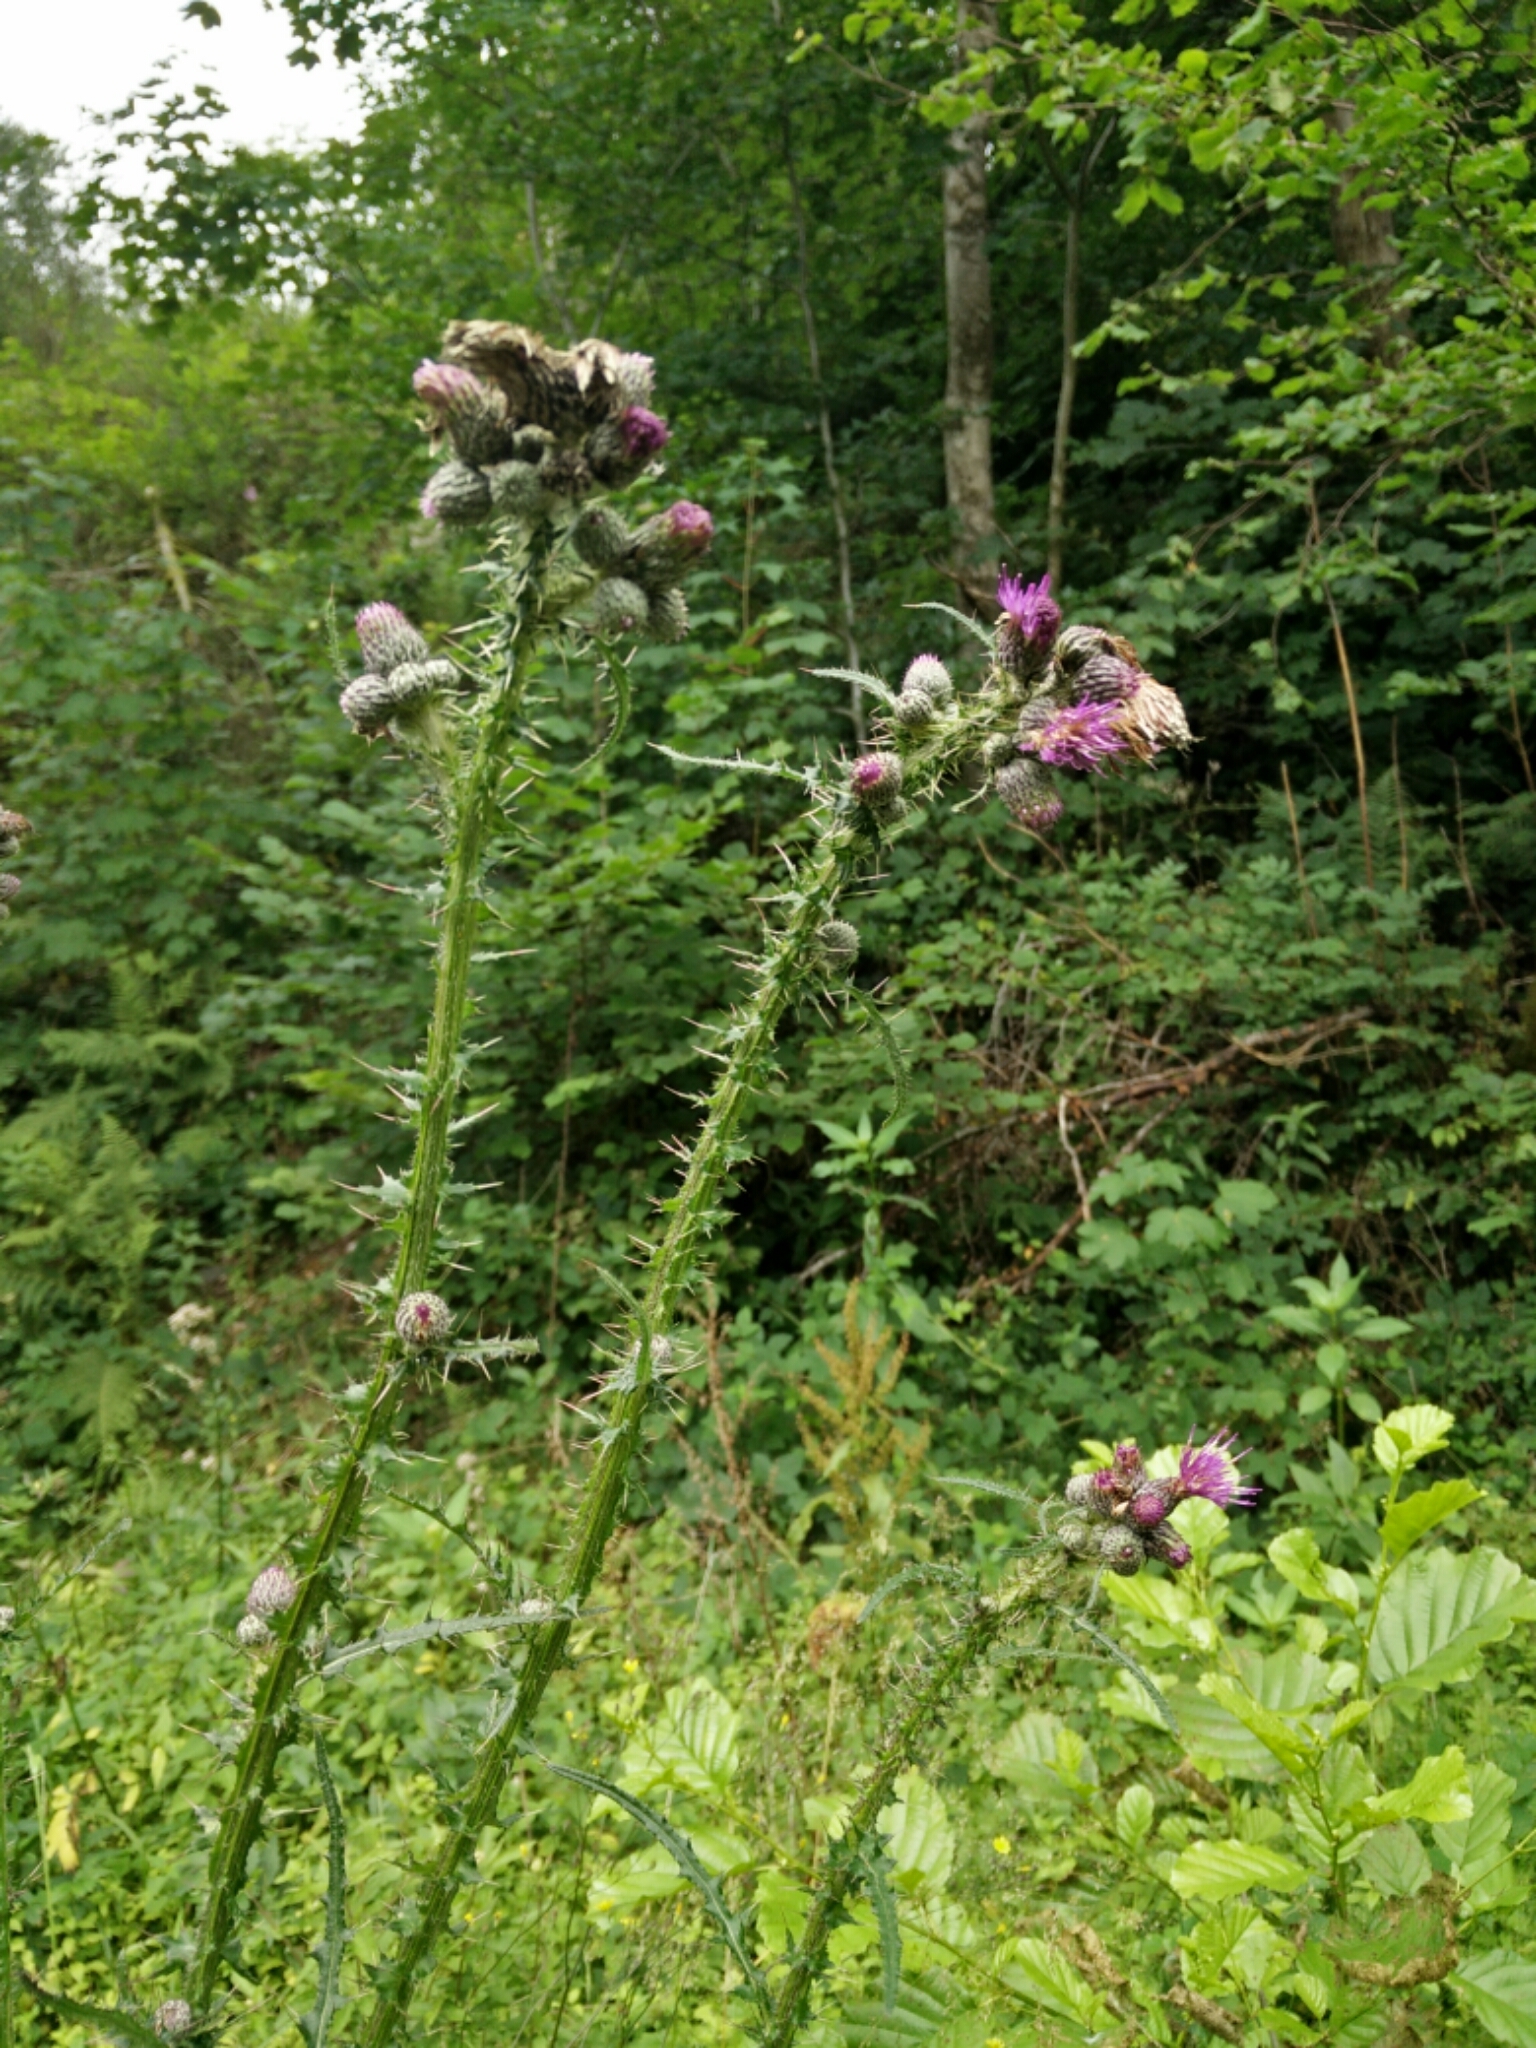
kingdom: Plantae
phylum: Tracheophyta
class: Magnoliopsida
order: Asterales
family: Asteraceae
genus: Cirsium
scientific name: Cirsium palustre
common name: Marsh thistle
